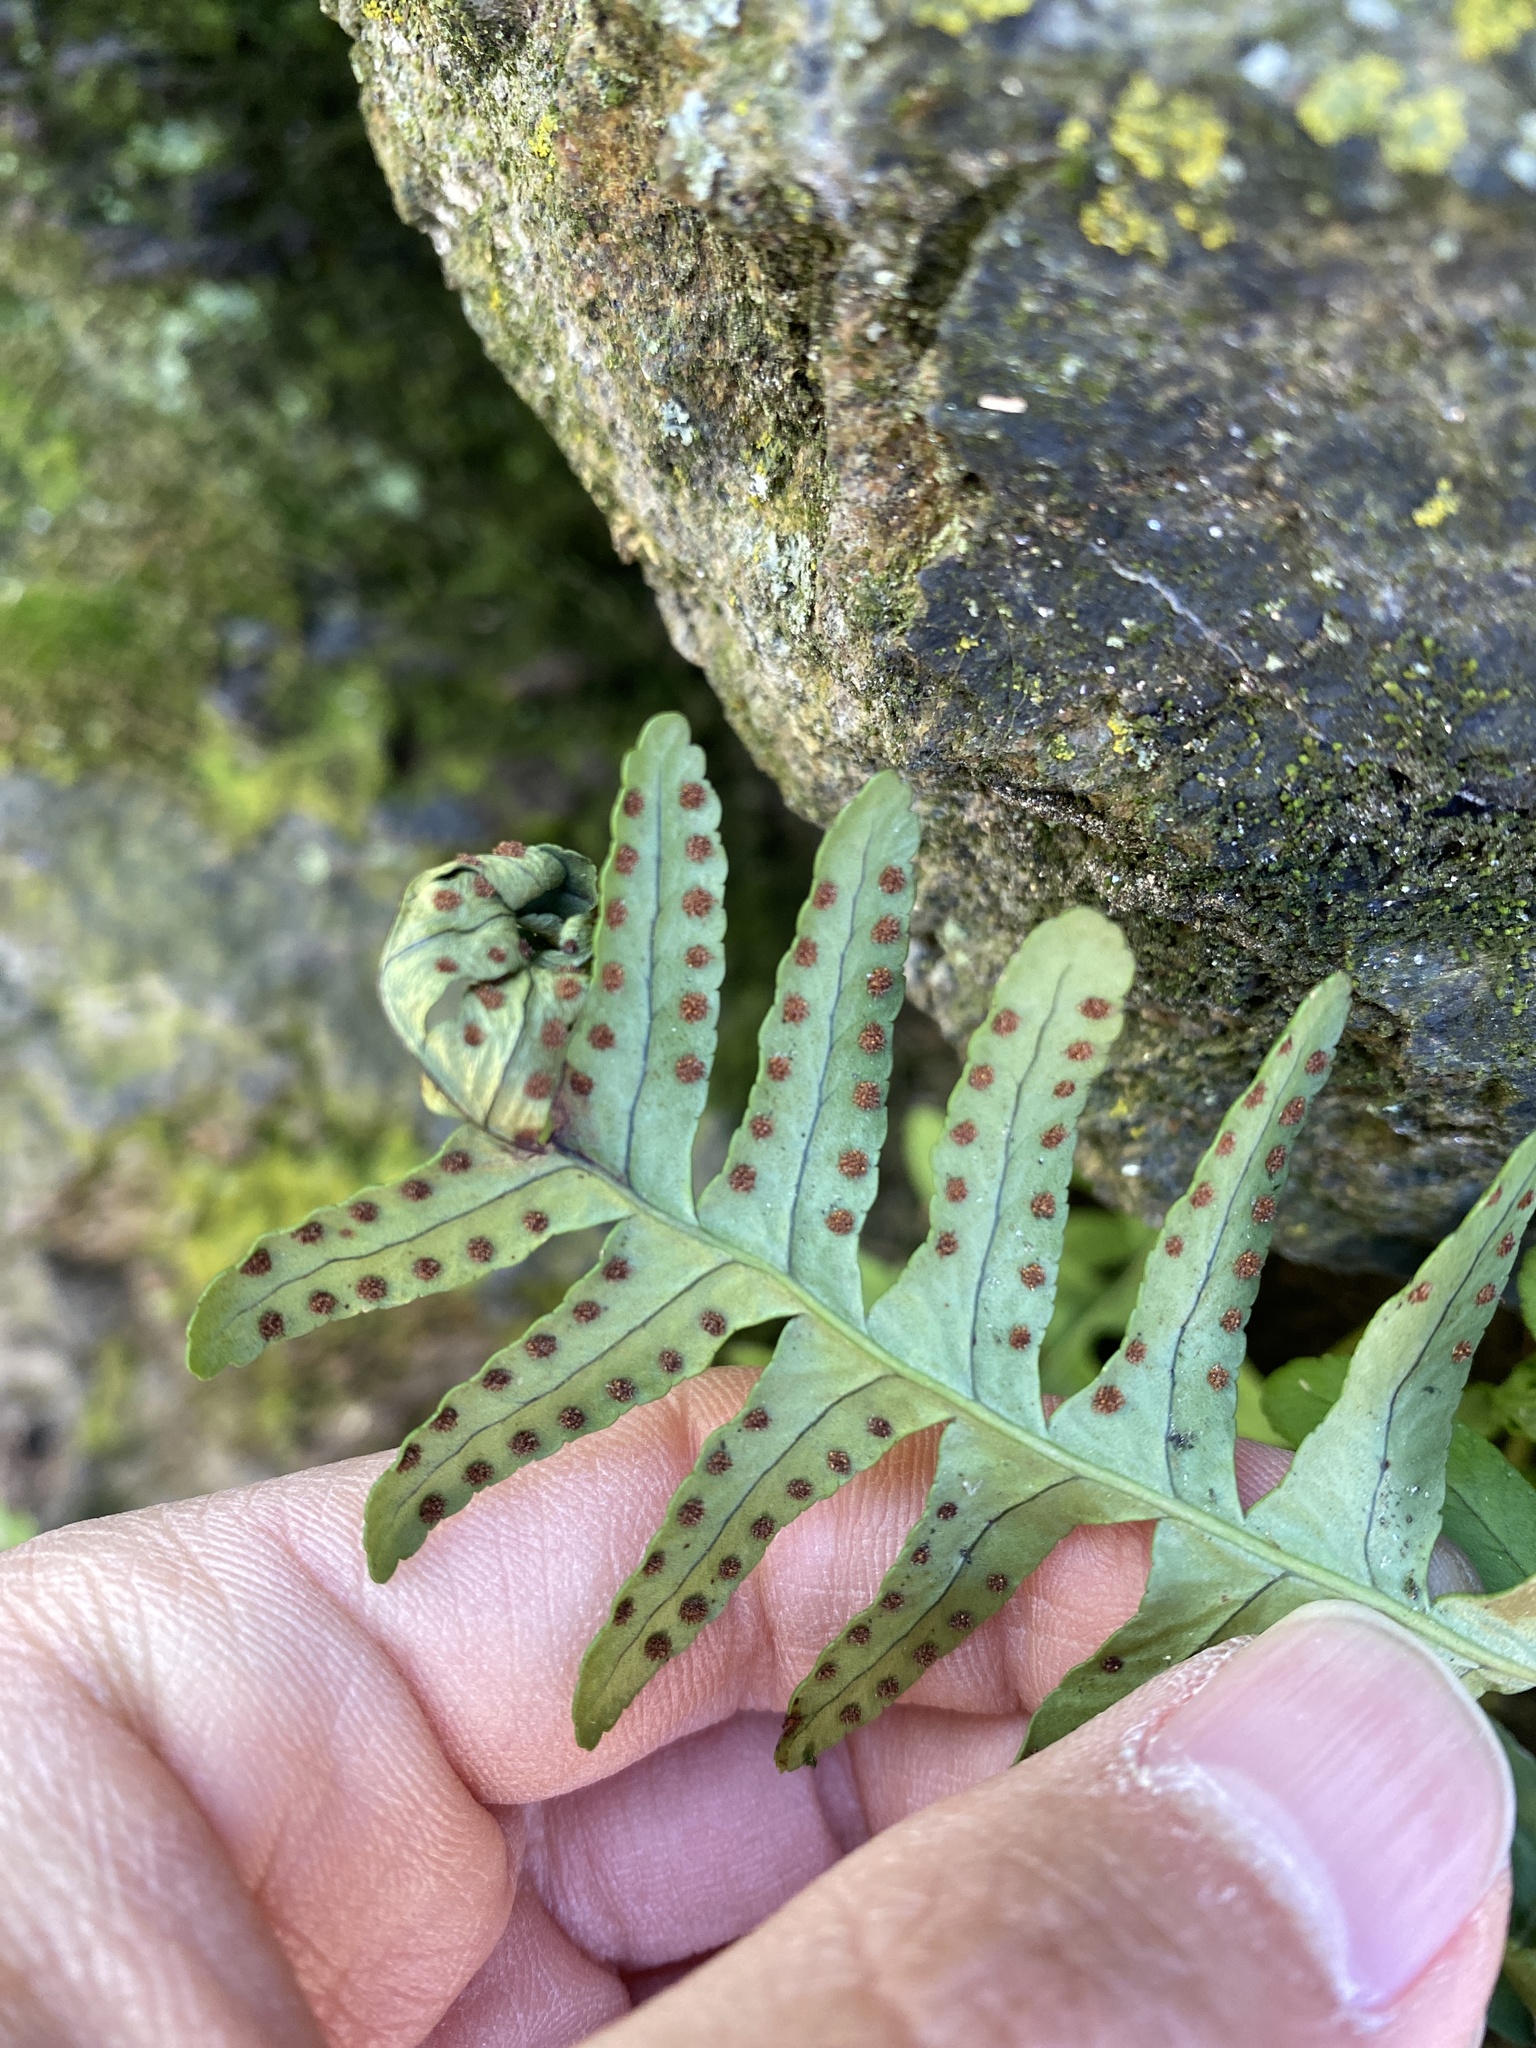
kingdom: Plantae
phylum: Tracheophyta
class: Polypodiopsida
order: Polypodiales
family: Polypodiaceae
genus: Polypodium
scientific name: Polypodium virginianum
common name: American wall fern
